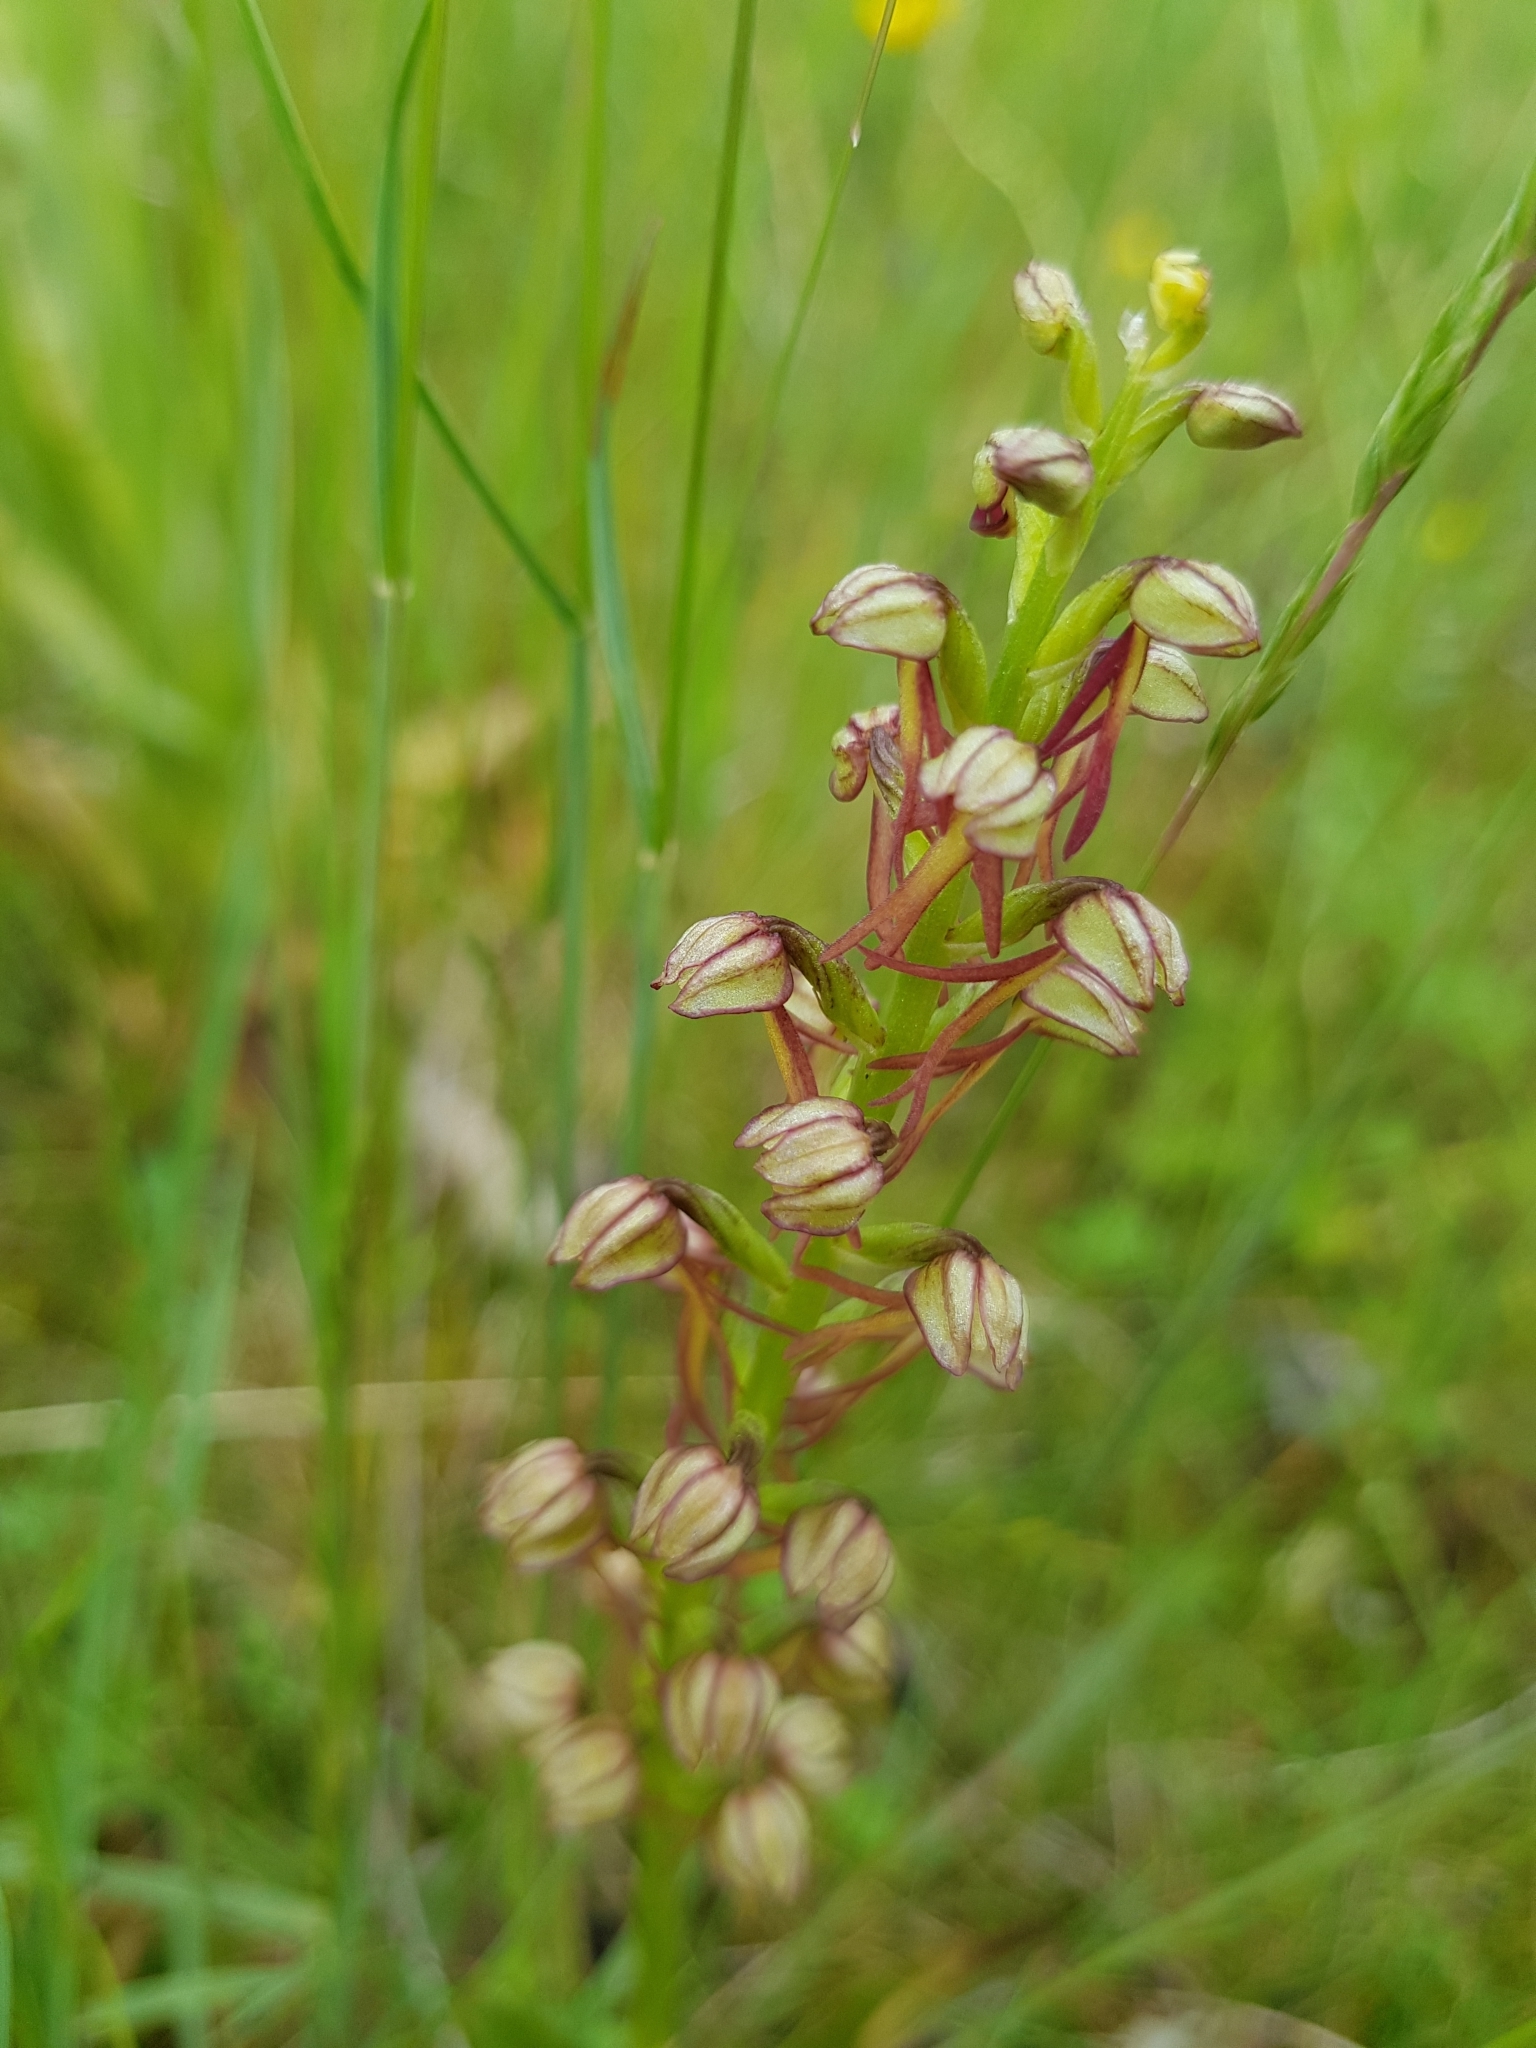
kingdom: Plantae
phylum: Tracheophyta
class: Liliopsida
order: Asparagales
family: Orchidaceae
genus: Orchis
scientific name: Orchis anthropophora
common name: Man orchid
